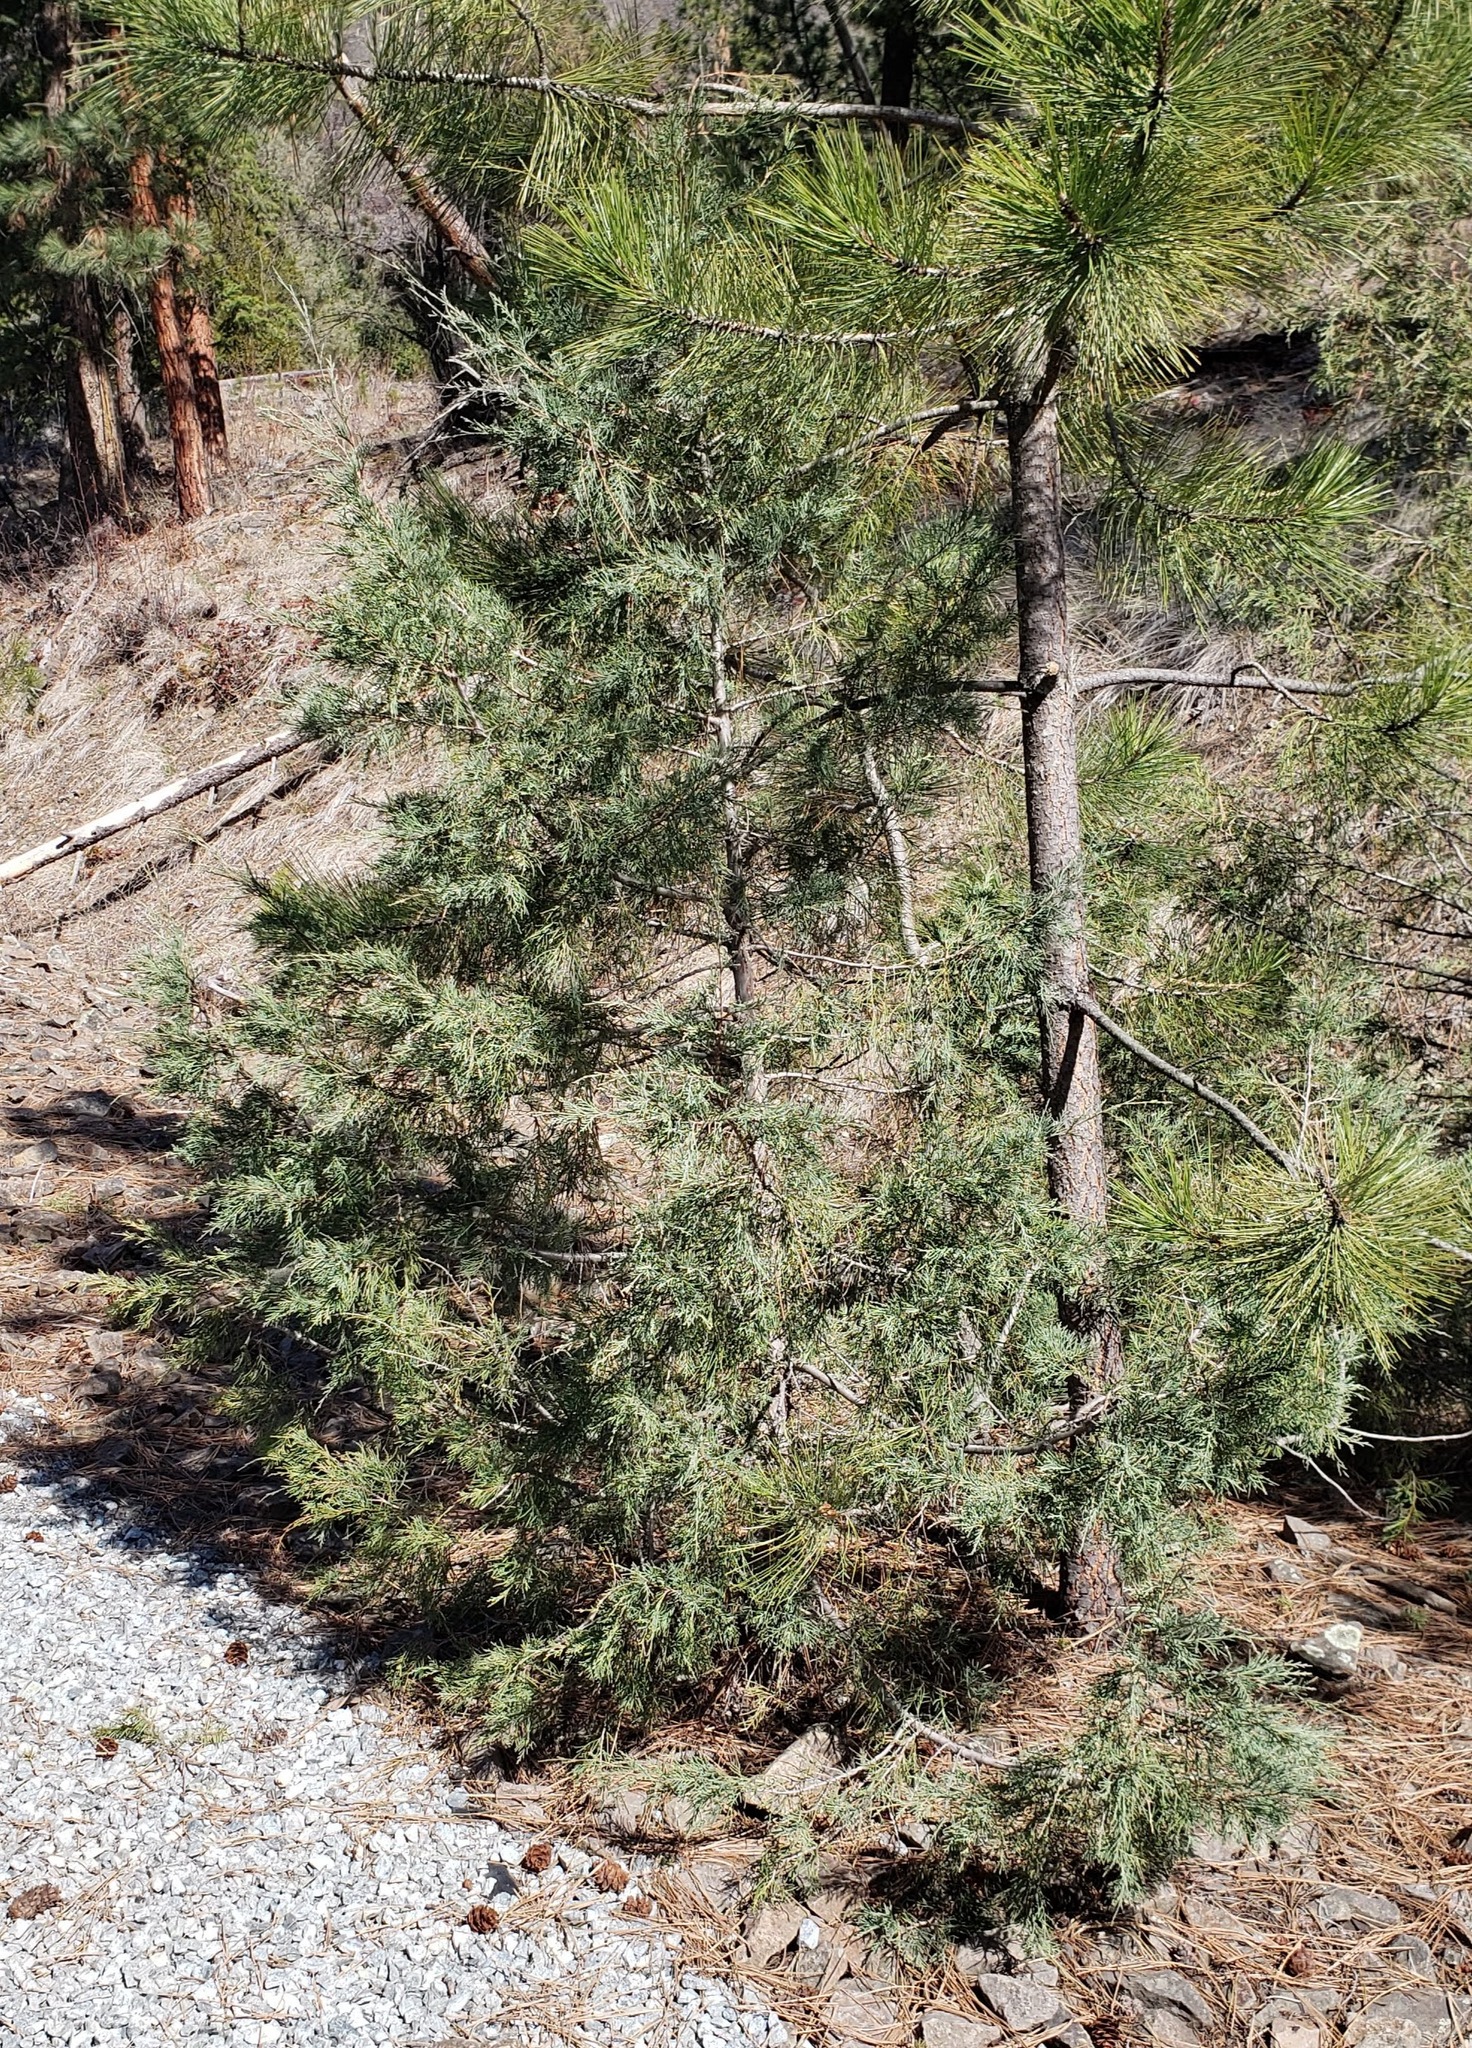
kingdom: Plantae
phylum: Tracheophyta
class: Pinopsida
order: Pinales
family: Cupressaceae
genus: Juniperus
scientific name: Juniperus scopulorum
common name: Rocky mountain juniper
